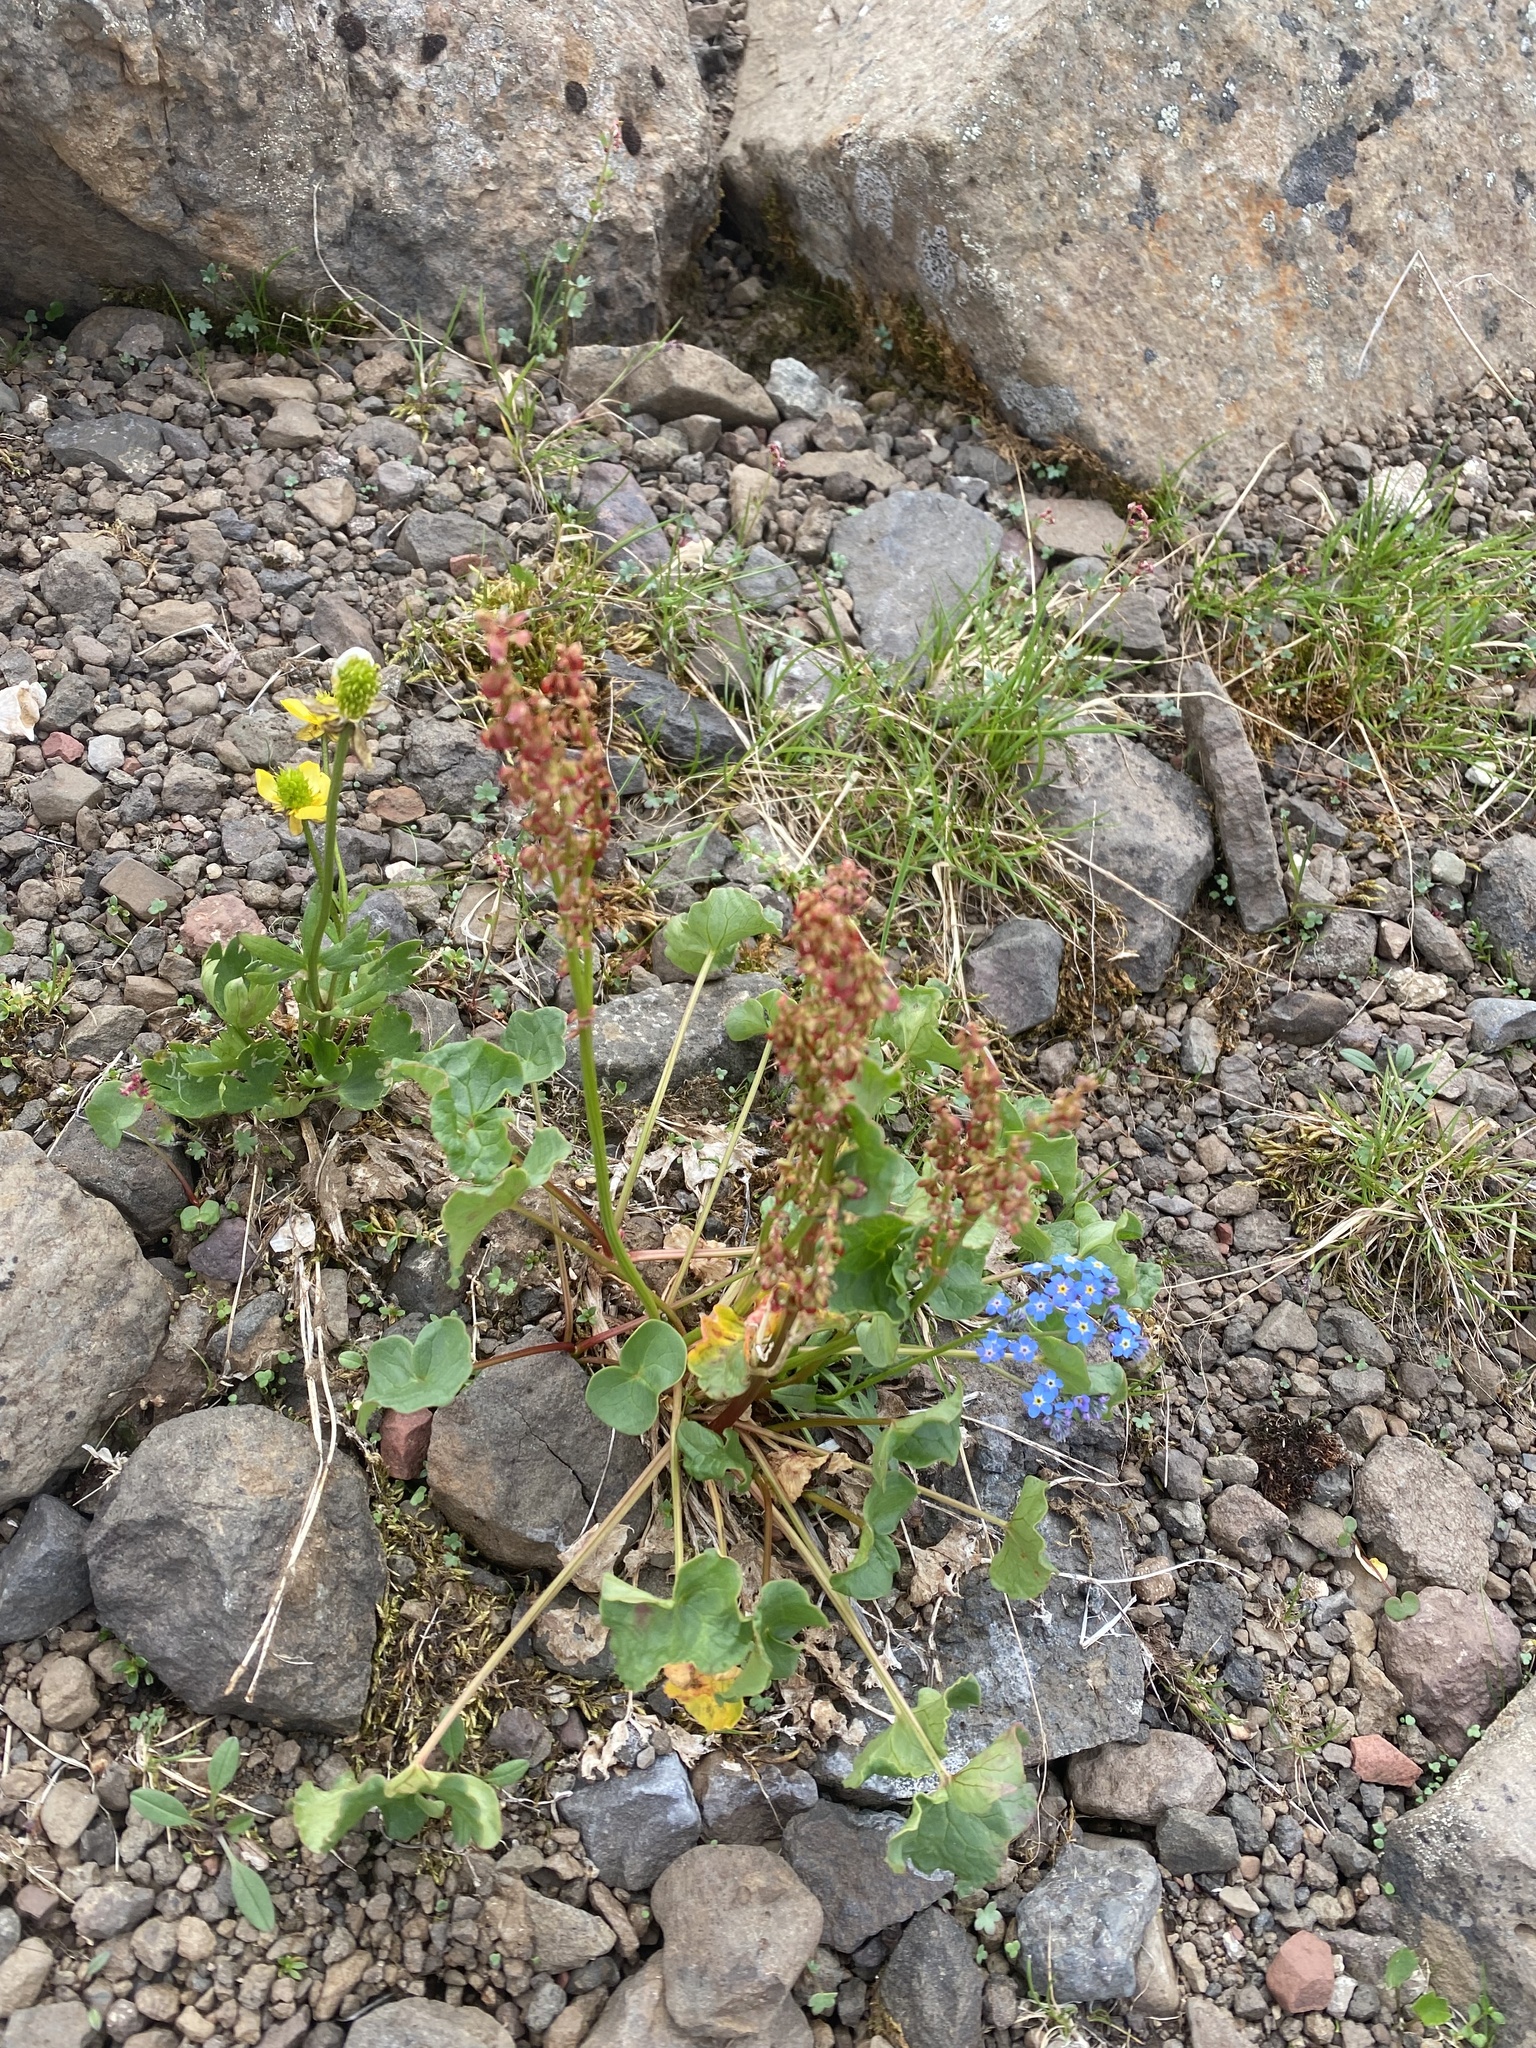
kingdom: Plantae
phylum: Tracheophyta
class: Magnoliopsida
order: Caryophyllales
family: Polygonaceae
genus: Oxyria
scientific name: Oxyria digyna
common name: Alpine mountain-sorrel
